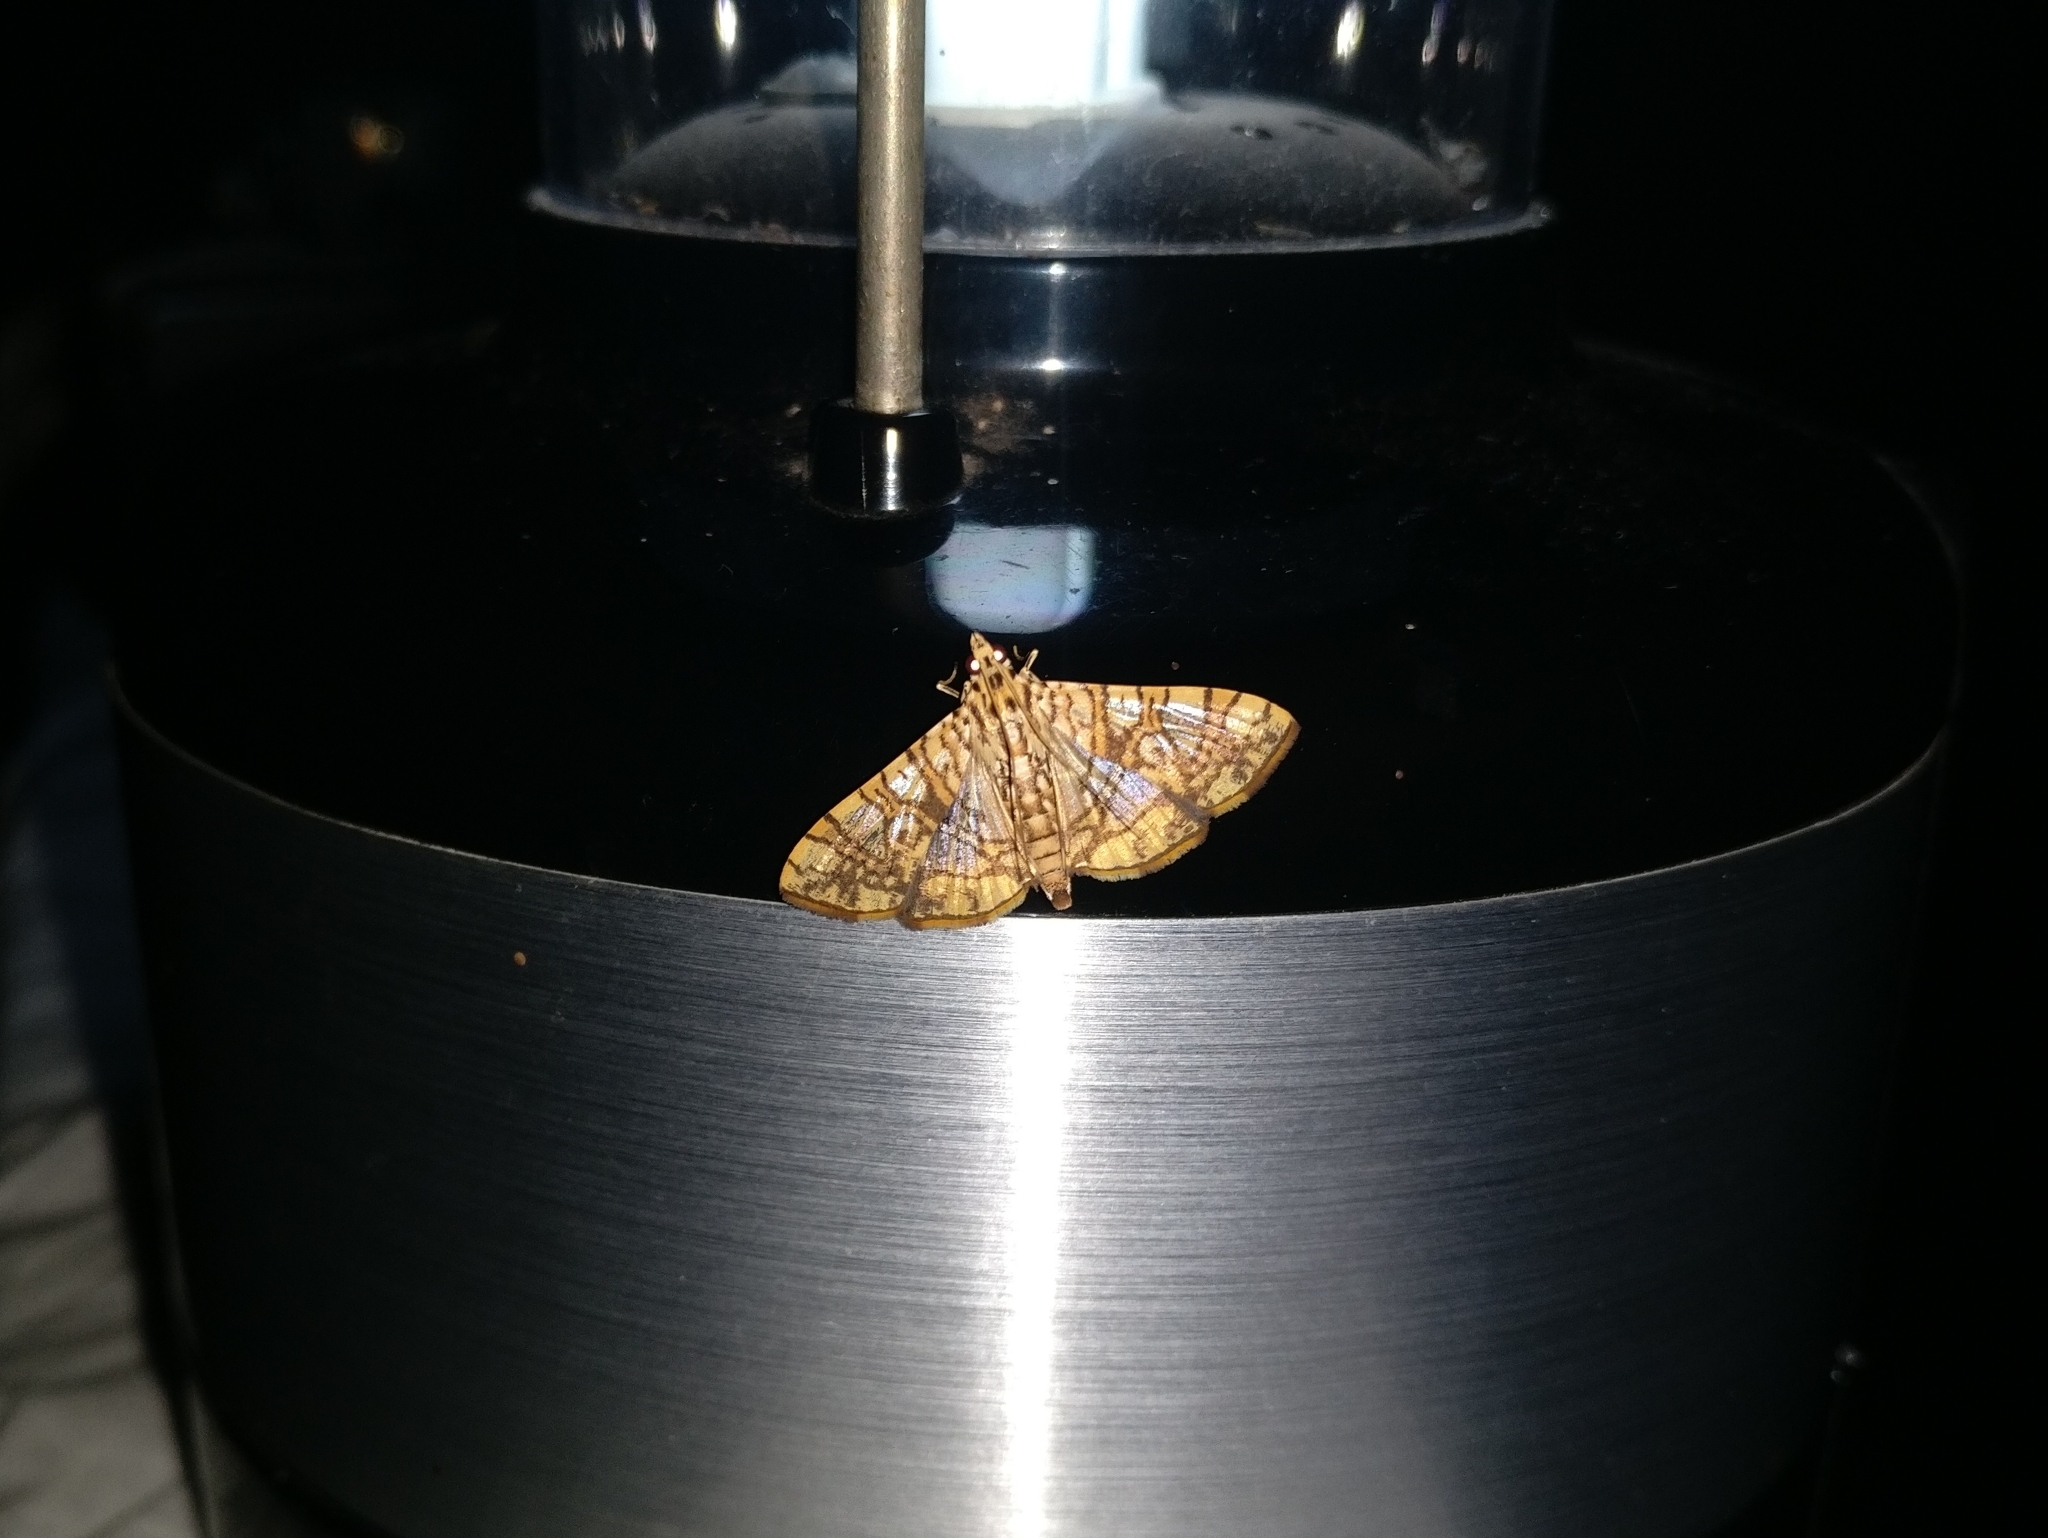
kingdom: Animalia
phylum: Arthropoda
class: Insecta
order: Lepidoptera
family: Crambidae
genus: Glyphodes
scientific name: Glyphodes caesalis
